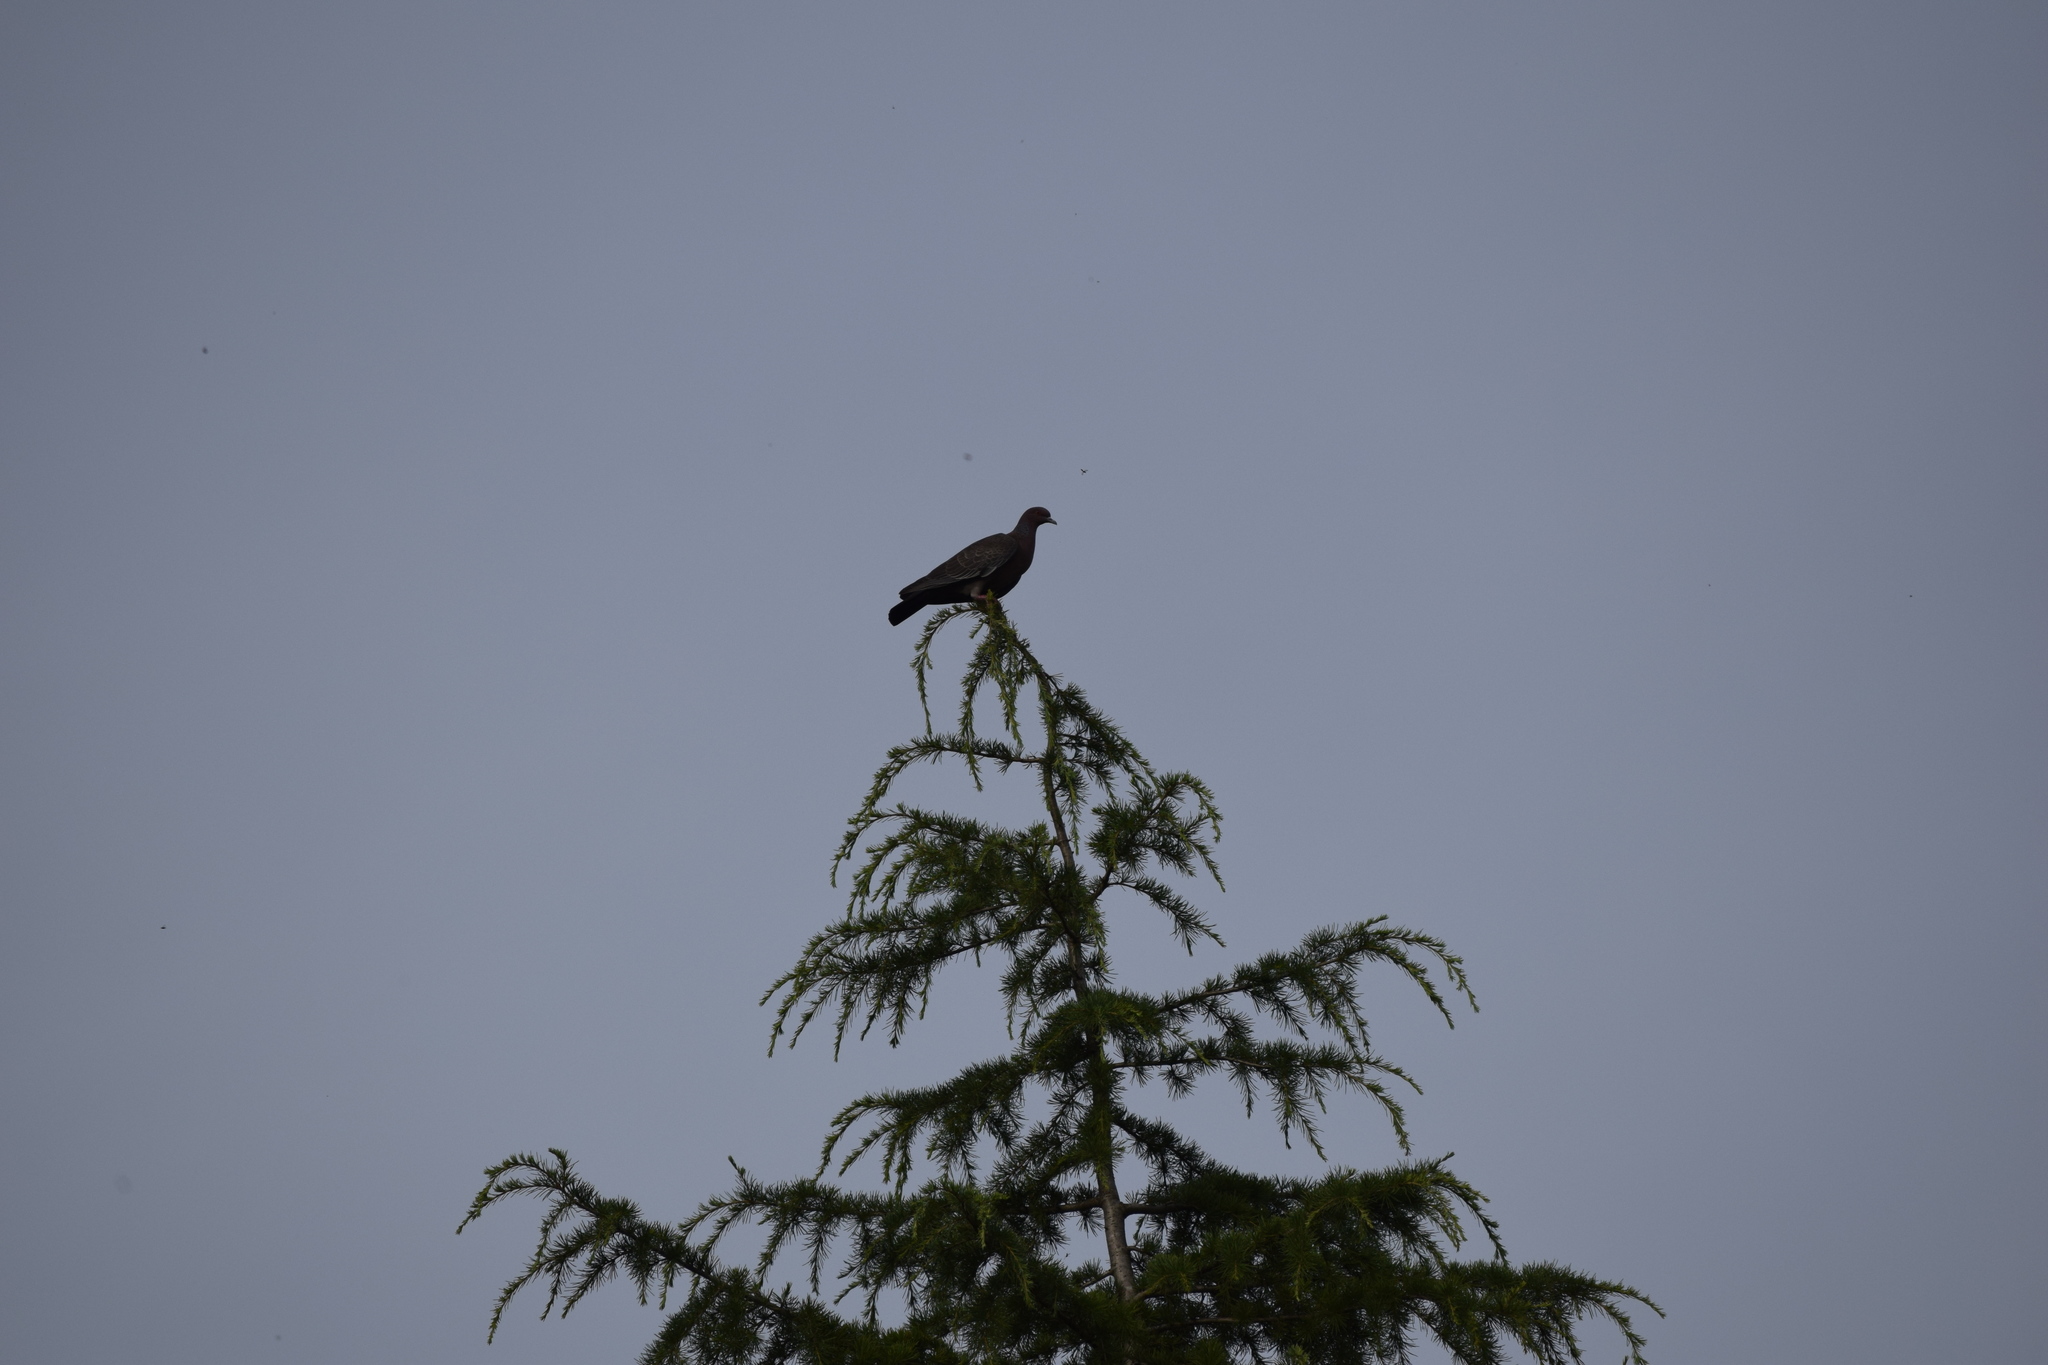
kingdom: Animalia
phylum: Chordata
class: Aves
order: Columbiformes
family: Columbidae
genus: Patagioenas
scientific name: Patagioenas picazuro
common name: Picazuro pigeon
